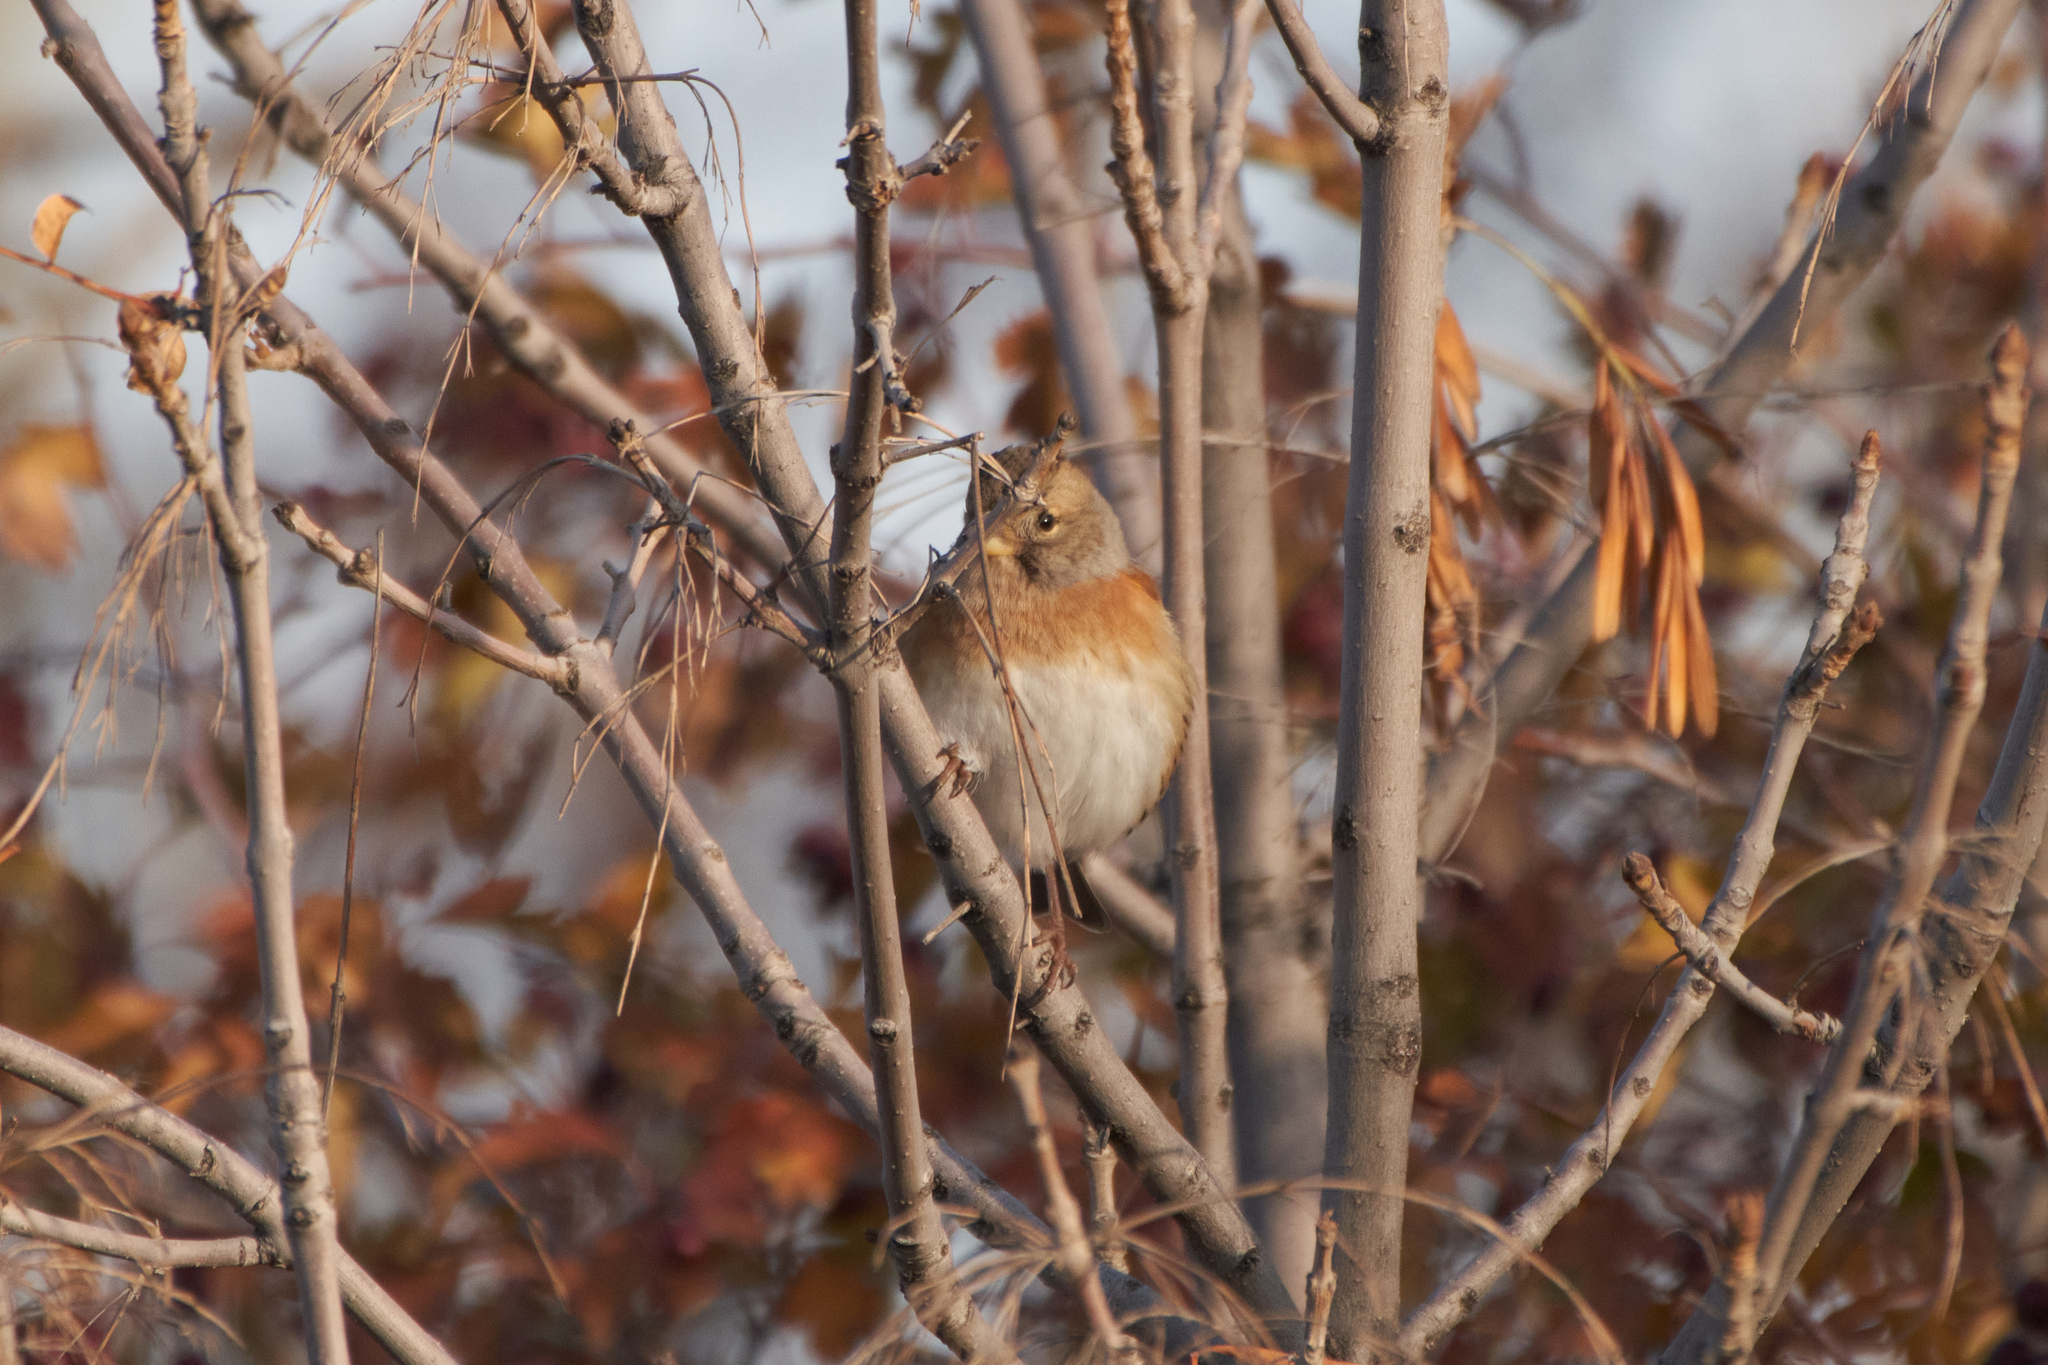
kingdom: Animalia
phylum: Chordata
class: Aves
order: Passeriformes
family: Fringillidae
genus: Fringilla
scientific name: Fringilla montifringilla
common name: Brambling
